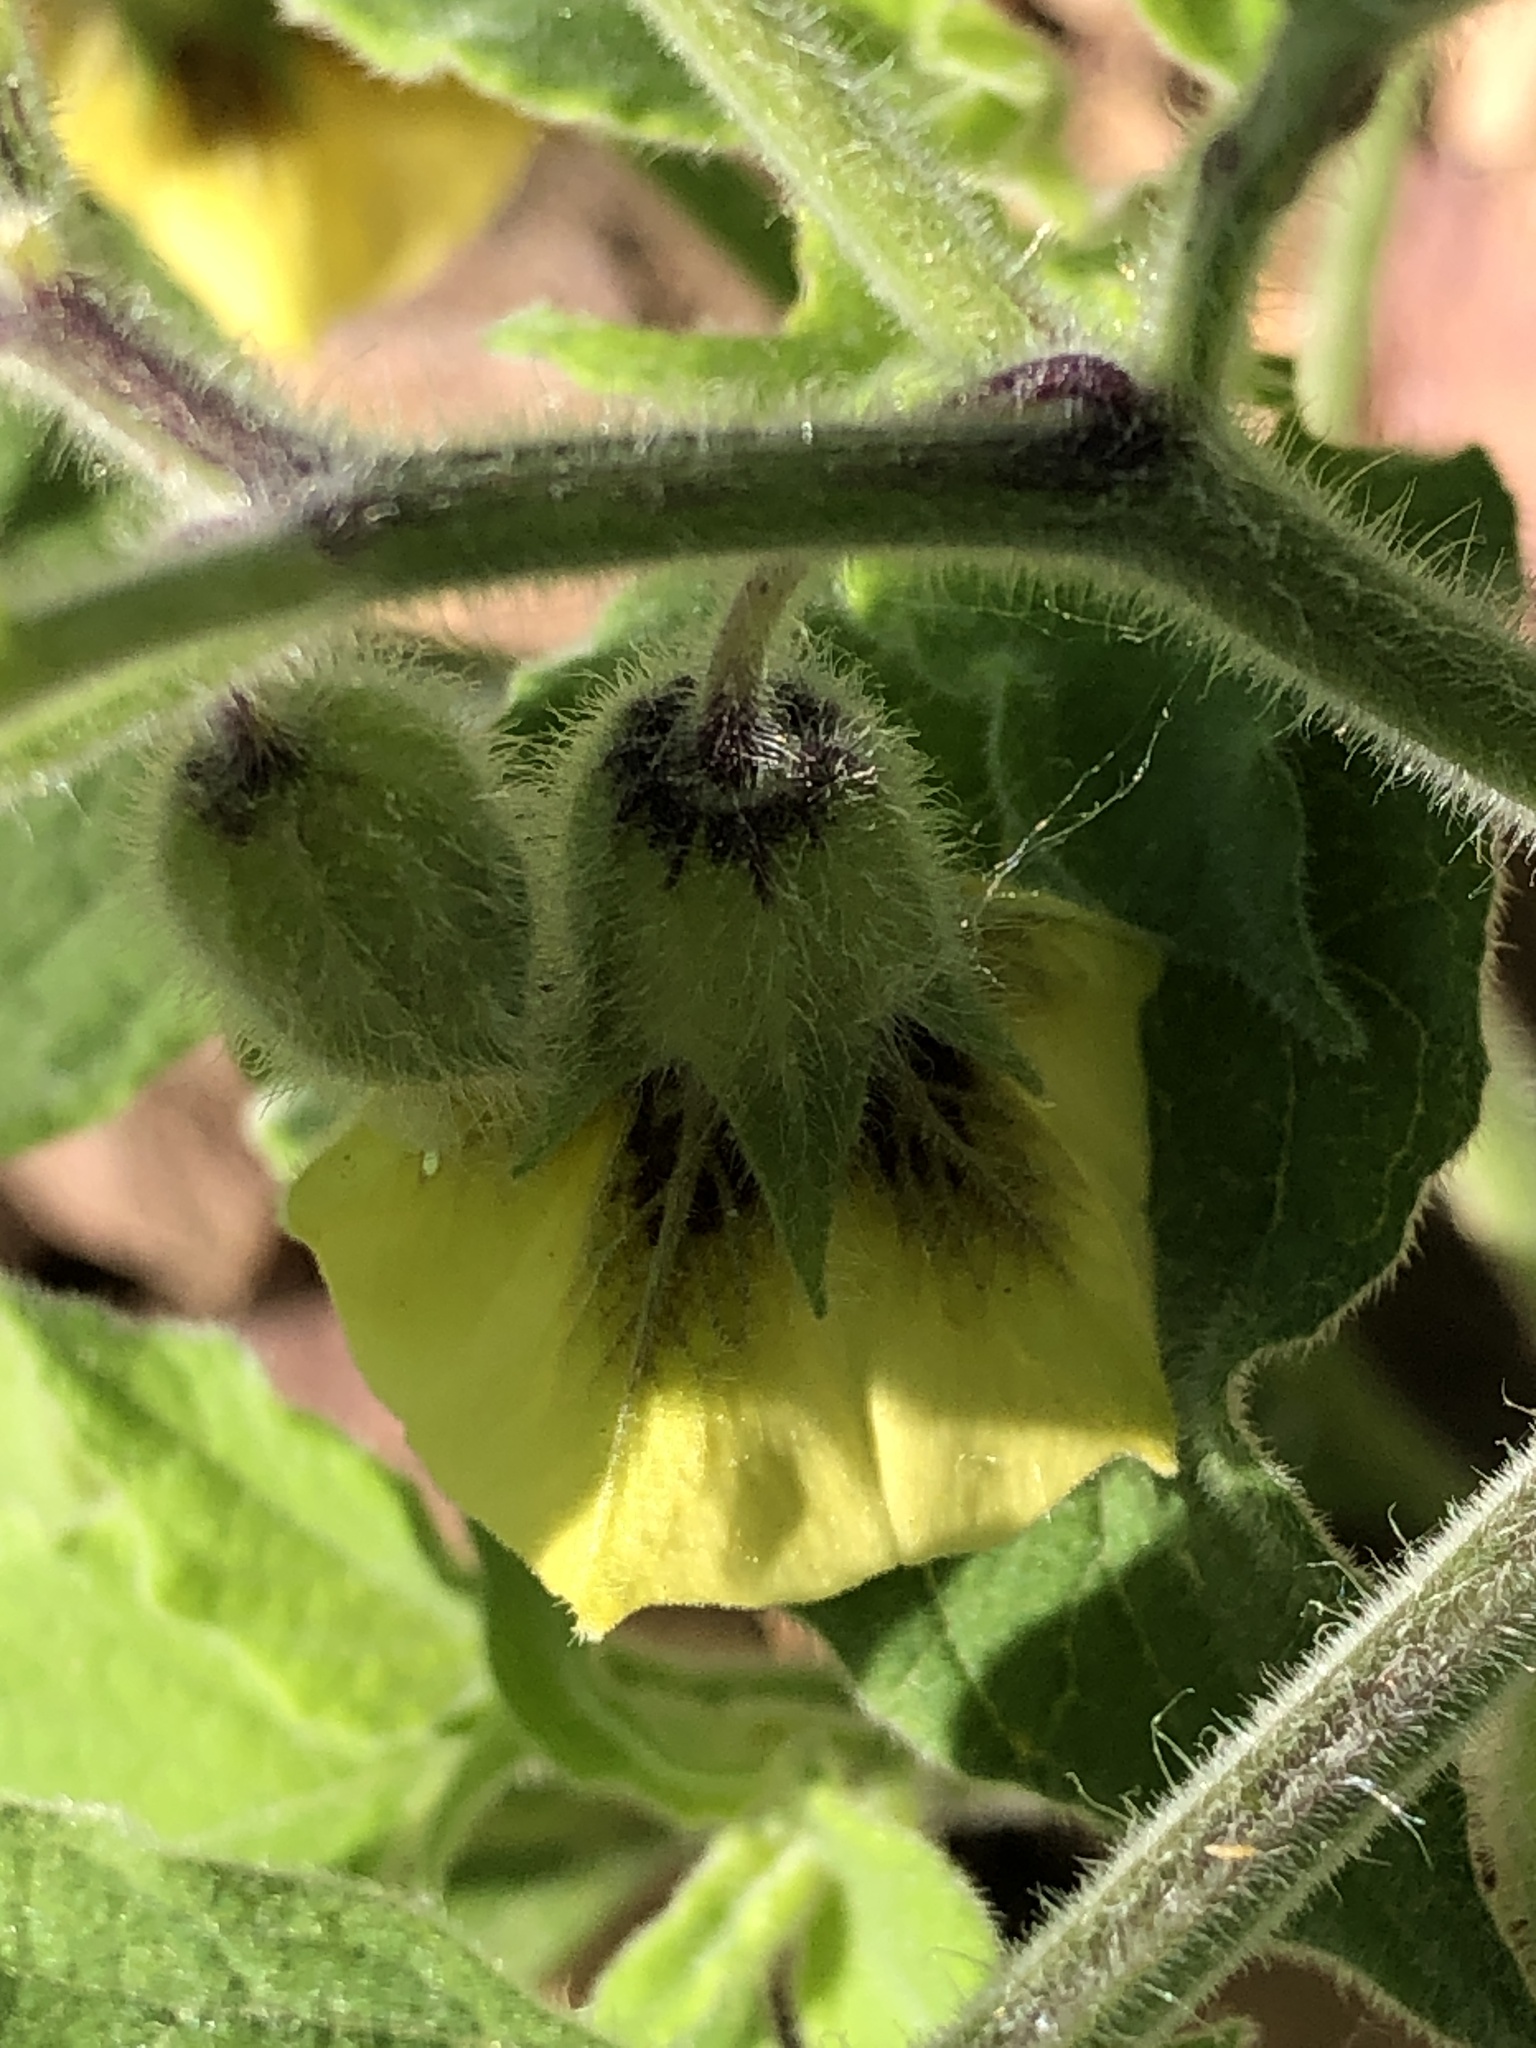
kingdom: Plantae
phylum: Tracheophyta
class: Magnoliopsida
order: Solanales
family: Solanaceae
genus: Physalis
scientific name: Physalis heterophylla
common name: Clammy ground-cherry
